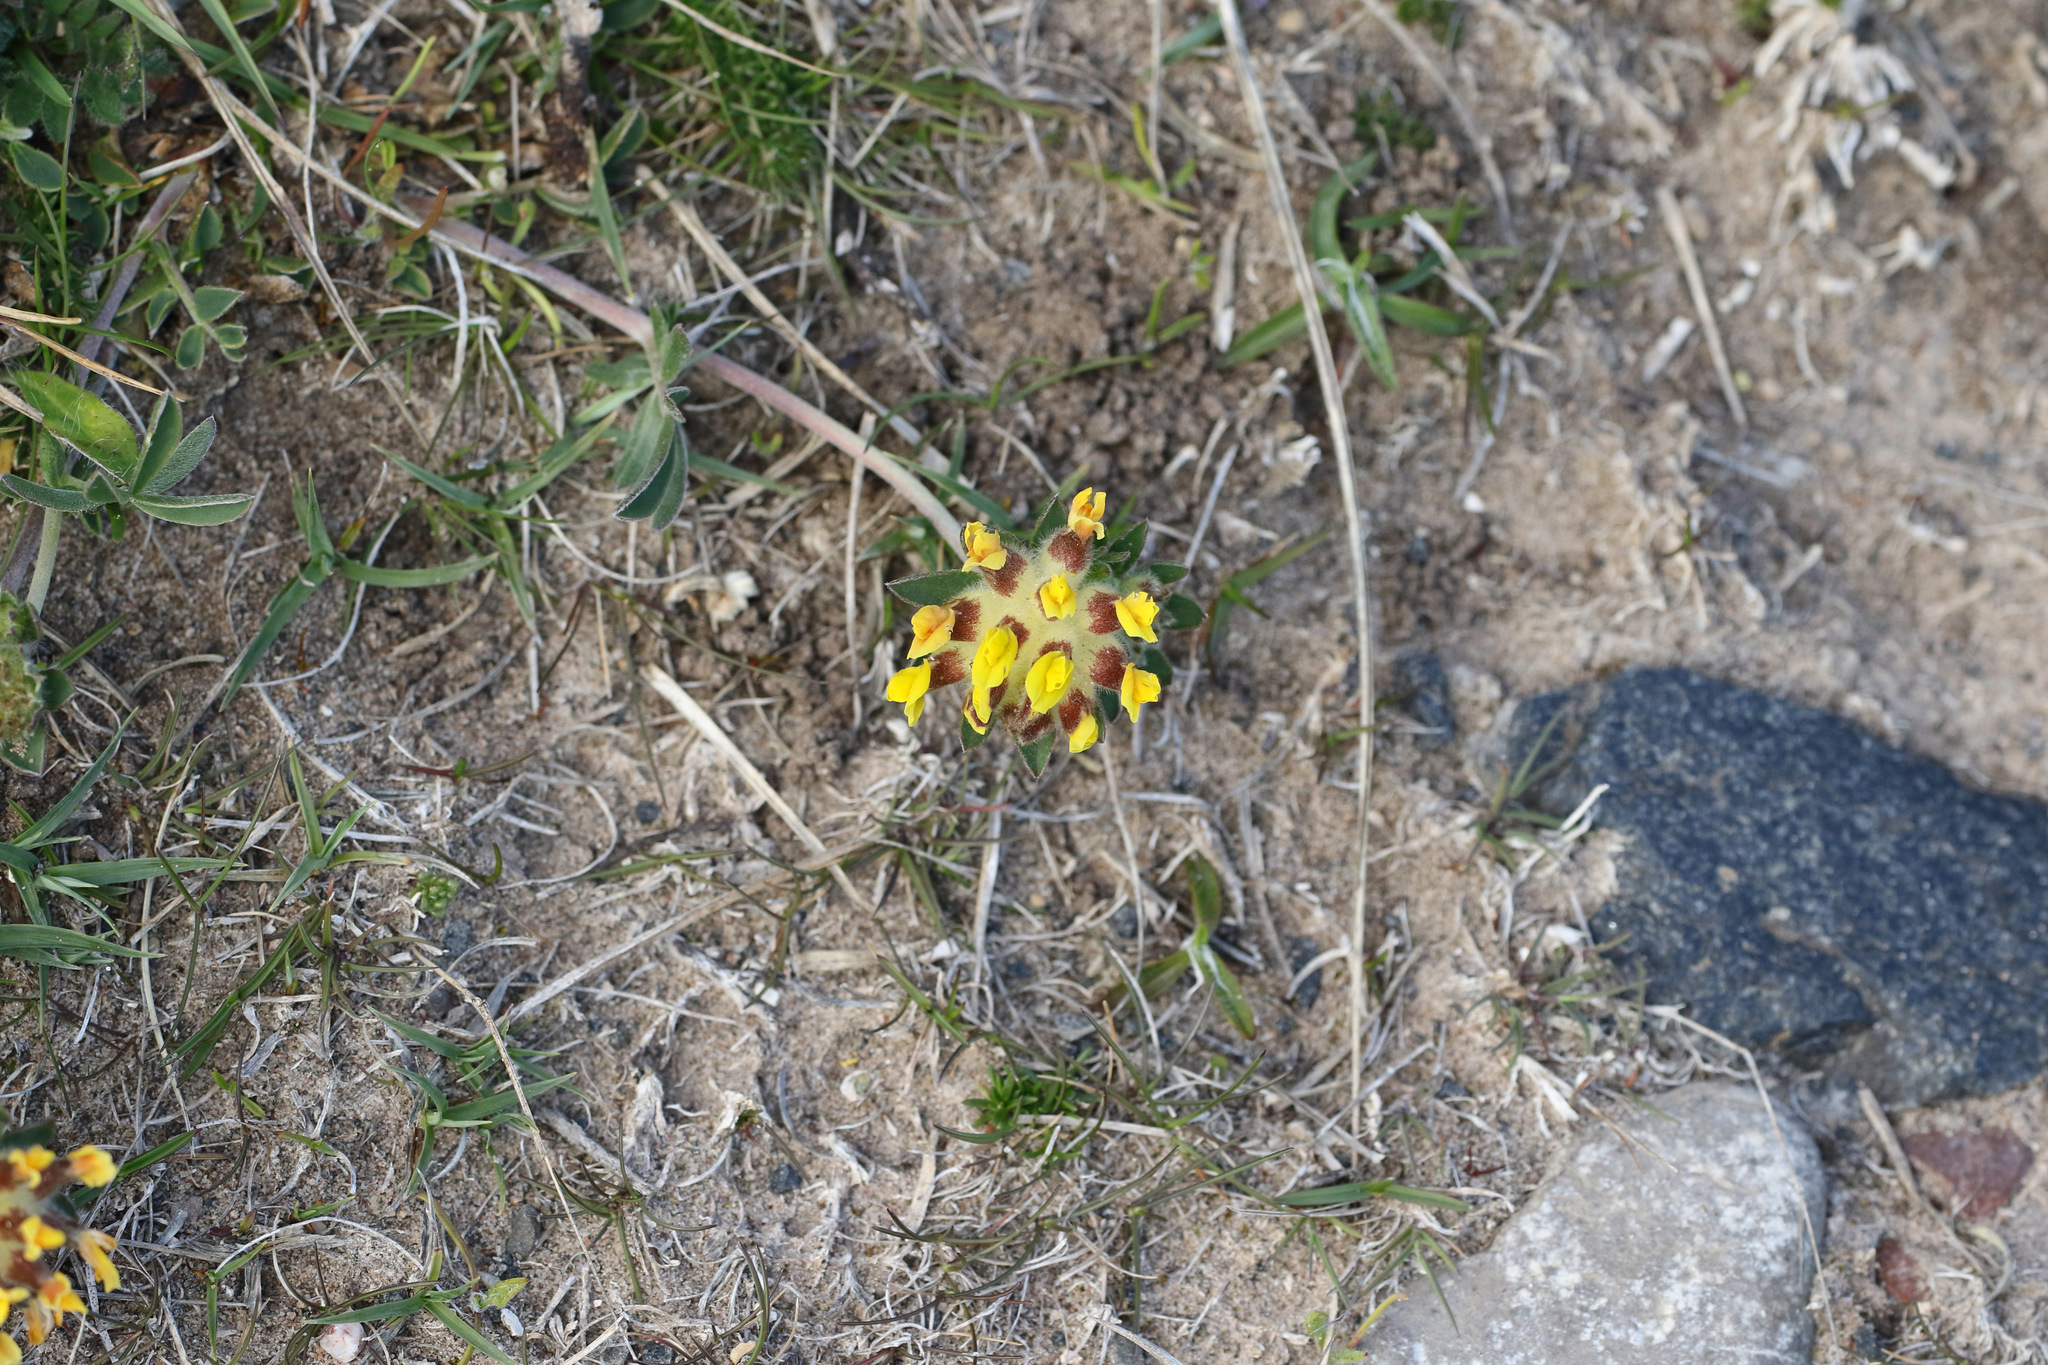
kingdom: Plantae
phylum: Tracheophyta
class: Magnoliopsida
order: Fabales
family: Fabaceae
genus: Anthyllis
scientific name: Anthyllis vulneraria
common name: Kidney vetch
